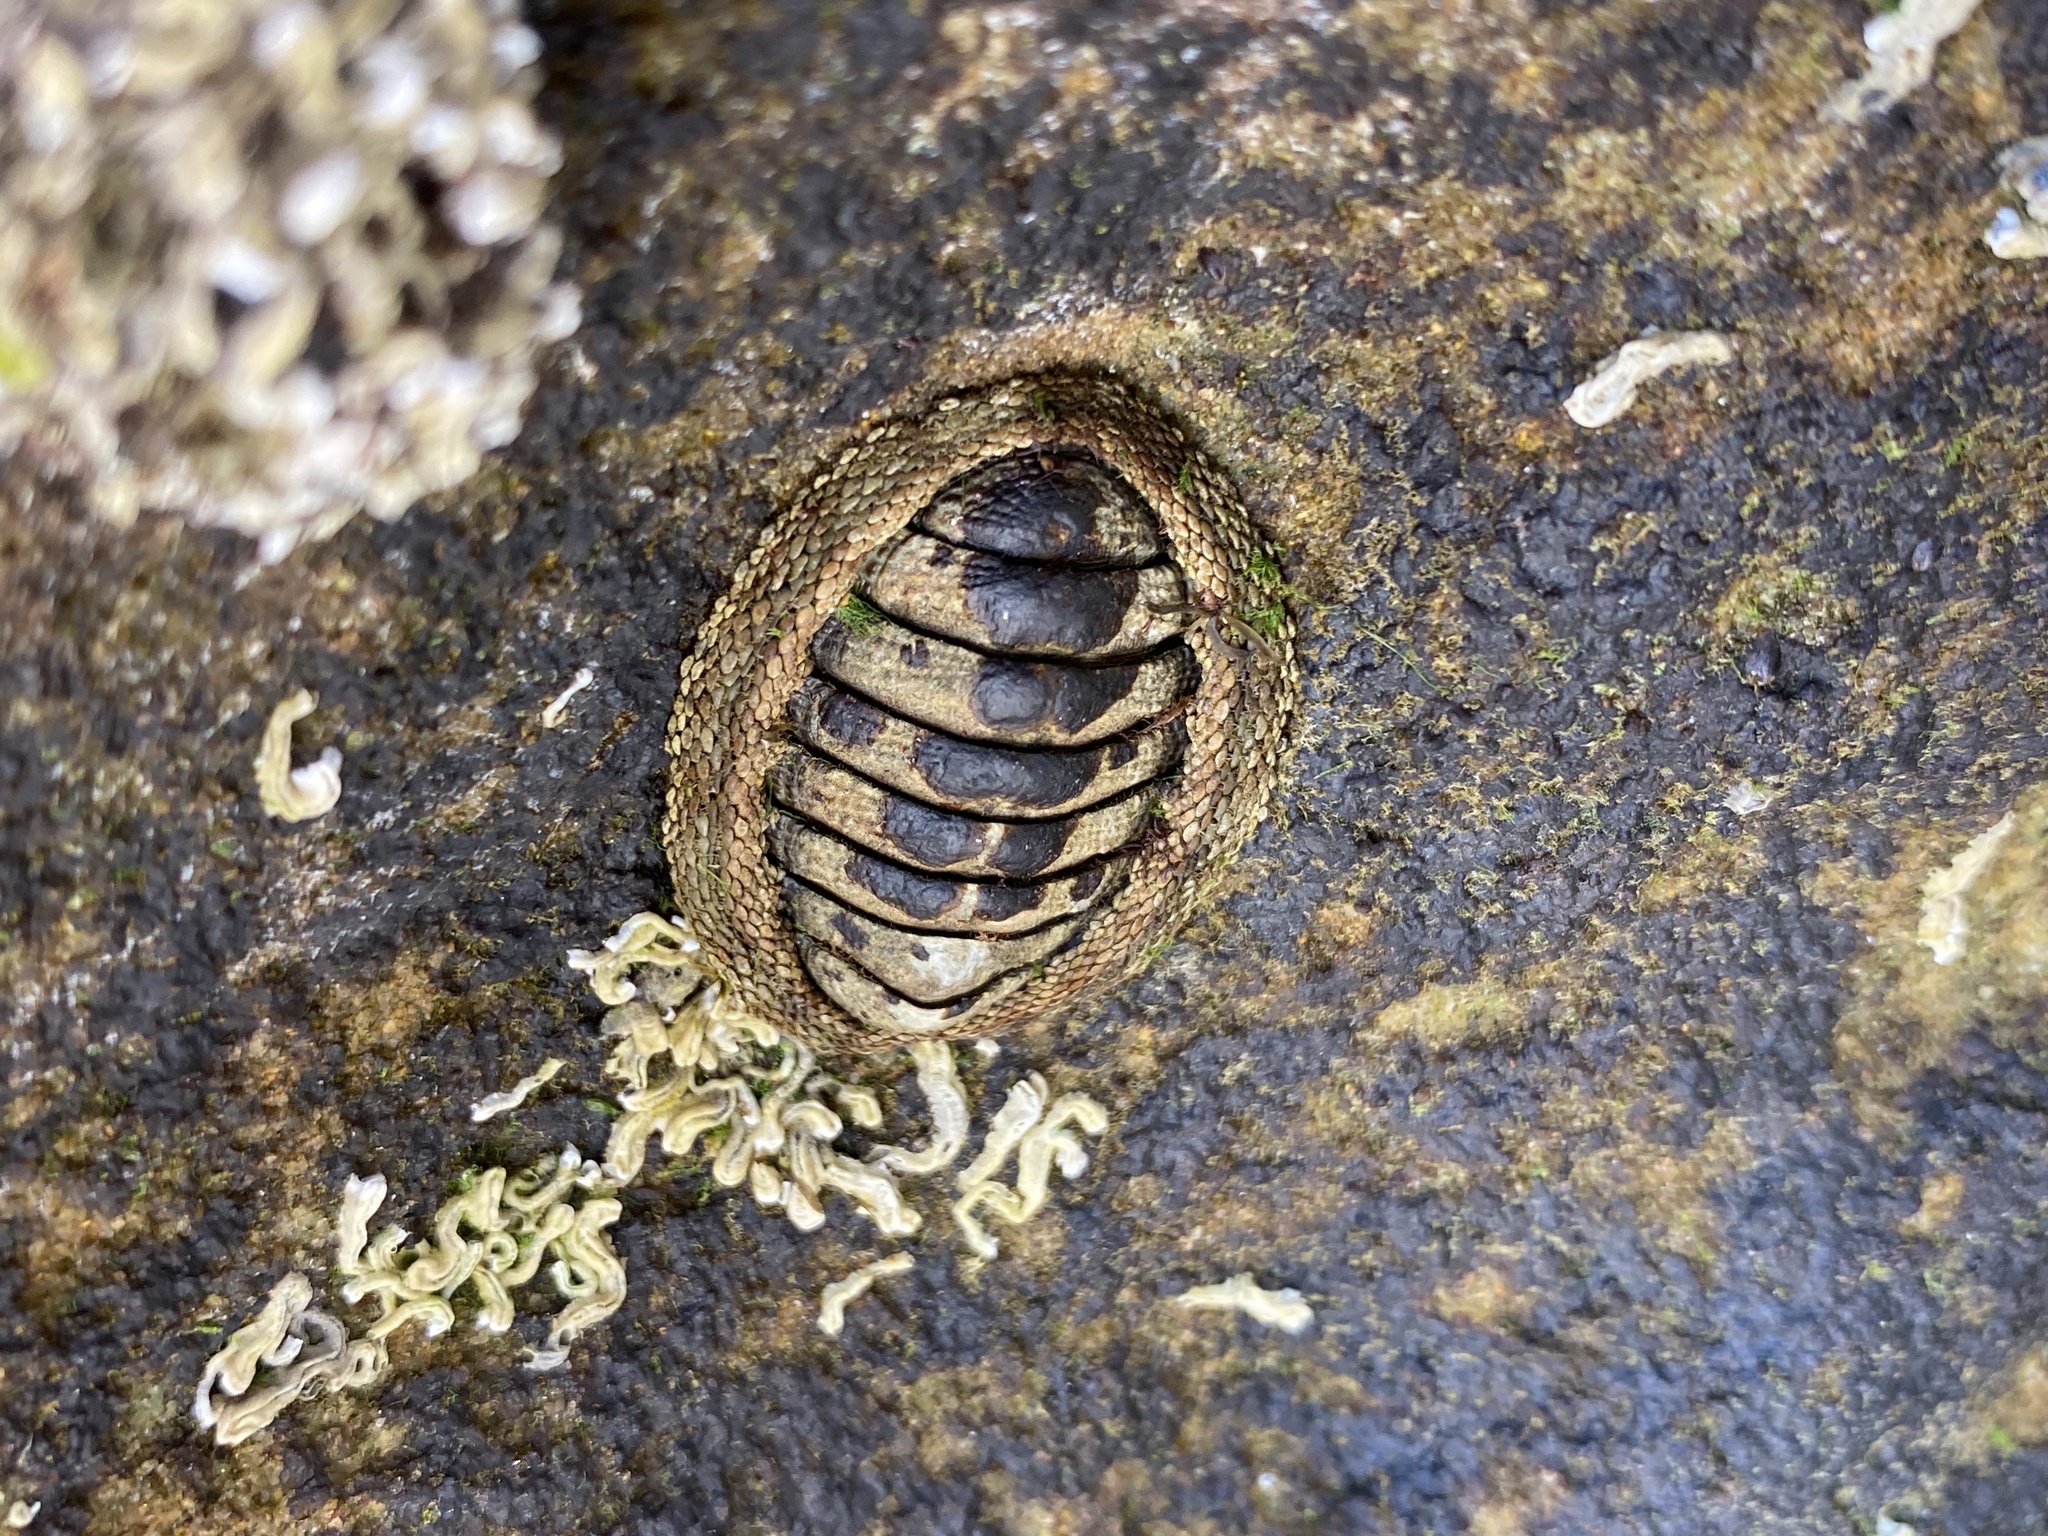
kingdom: Animalia
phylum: Mollusca
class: Polyplacophora
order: Chitonida
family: Chitonidae
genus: Sypharochiton
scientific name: Sypharochiton pelliserpentis
